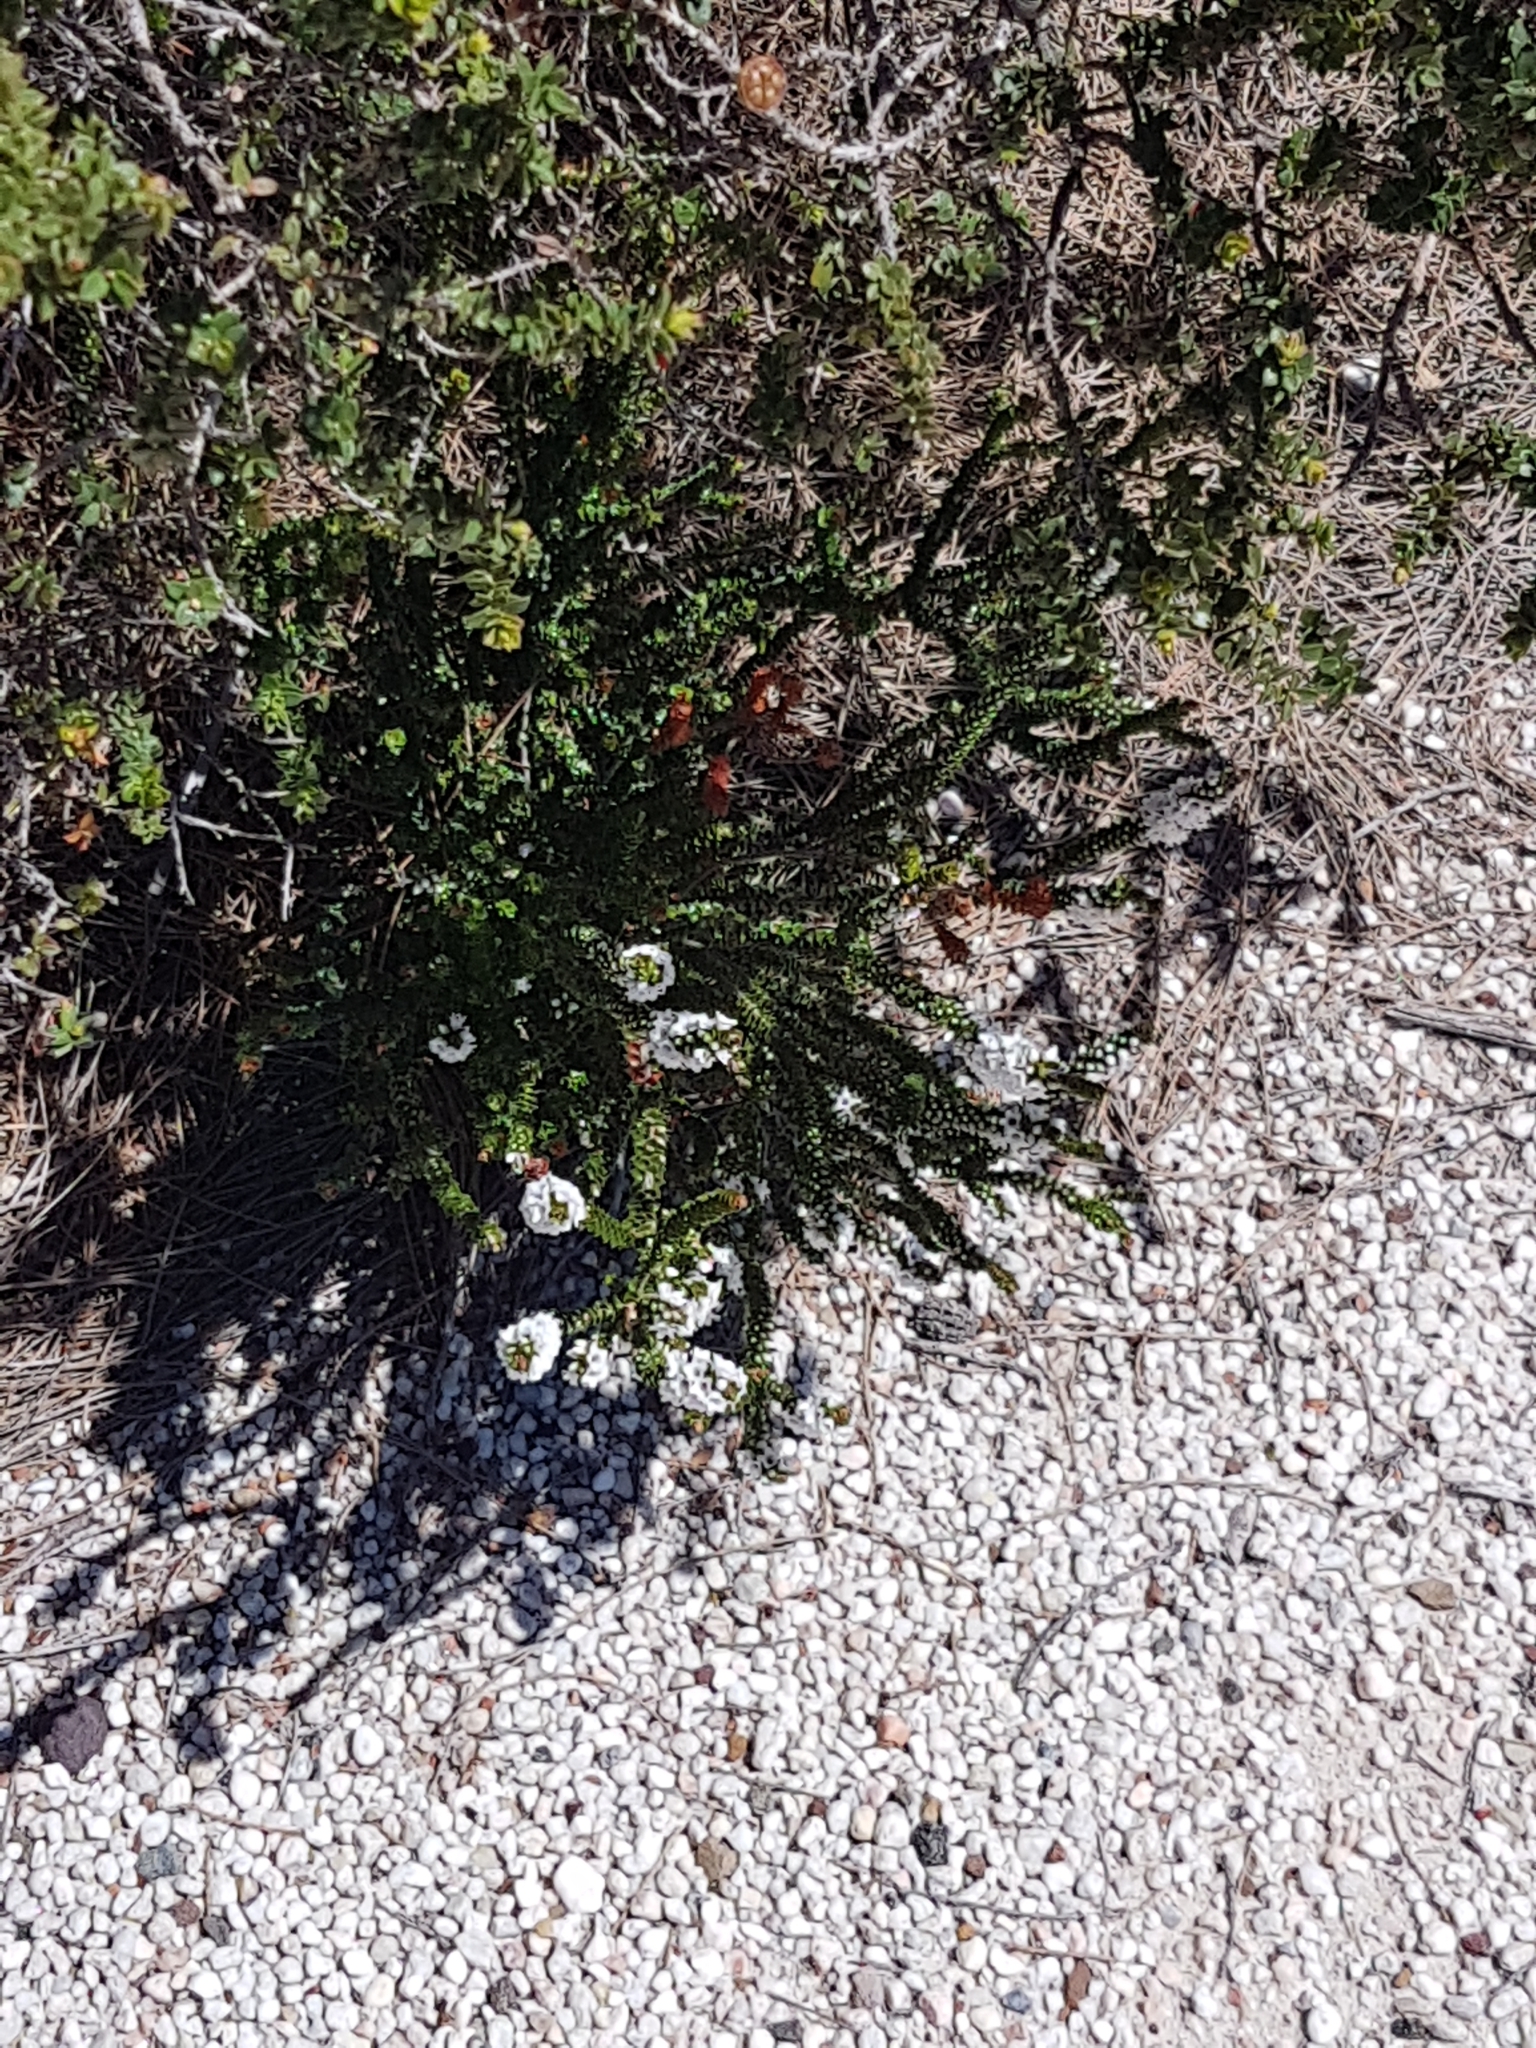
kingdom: Plantae
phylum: Tracheophyta
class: Magnoliopsida
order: Ericales
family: Ericaceae
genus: Woollsia
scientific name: Woollsia pungens
